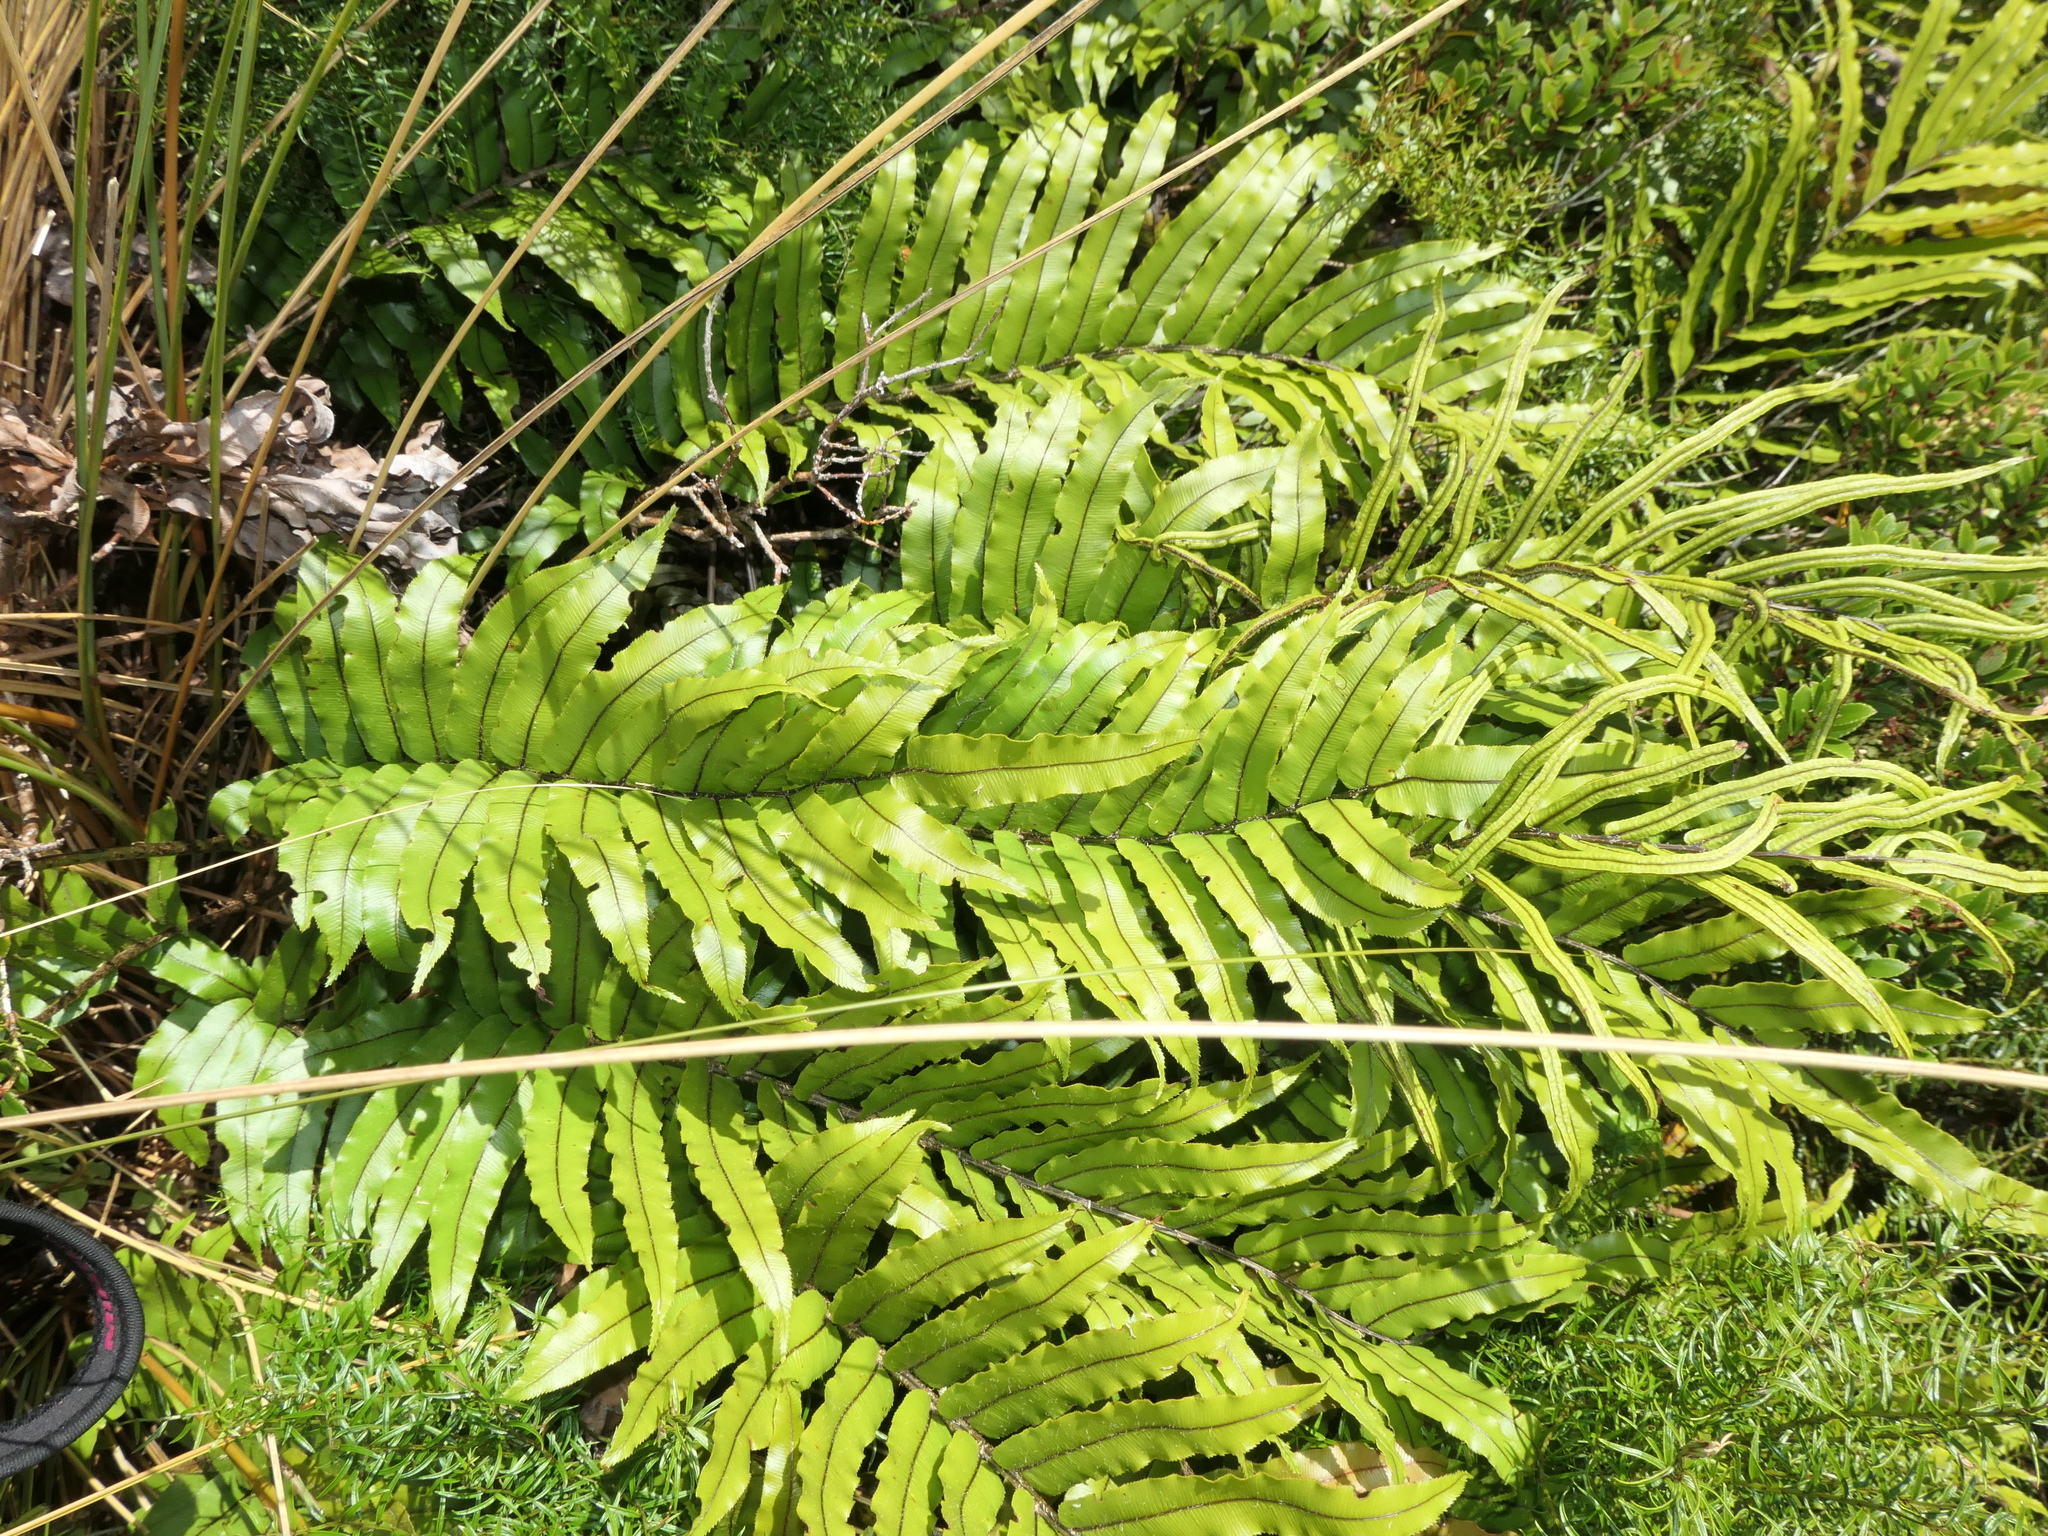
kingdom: Plantae
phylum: Tracheophyta
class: Polypodiopsida
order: Polypodiales
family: Blechnaceae
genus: Parablechnum
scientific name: Parablechnum montanum
